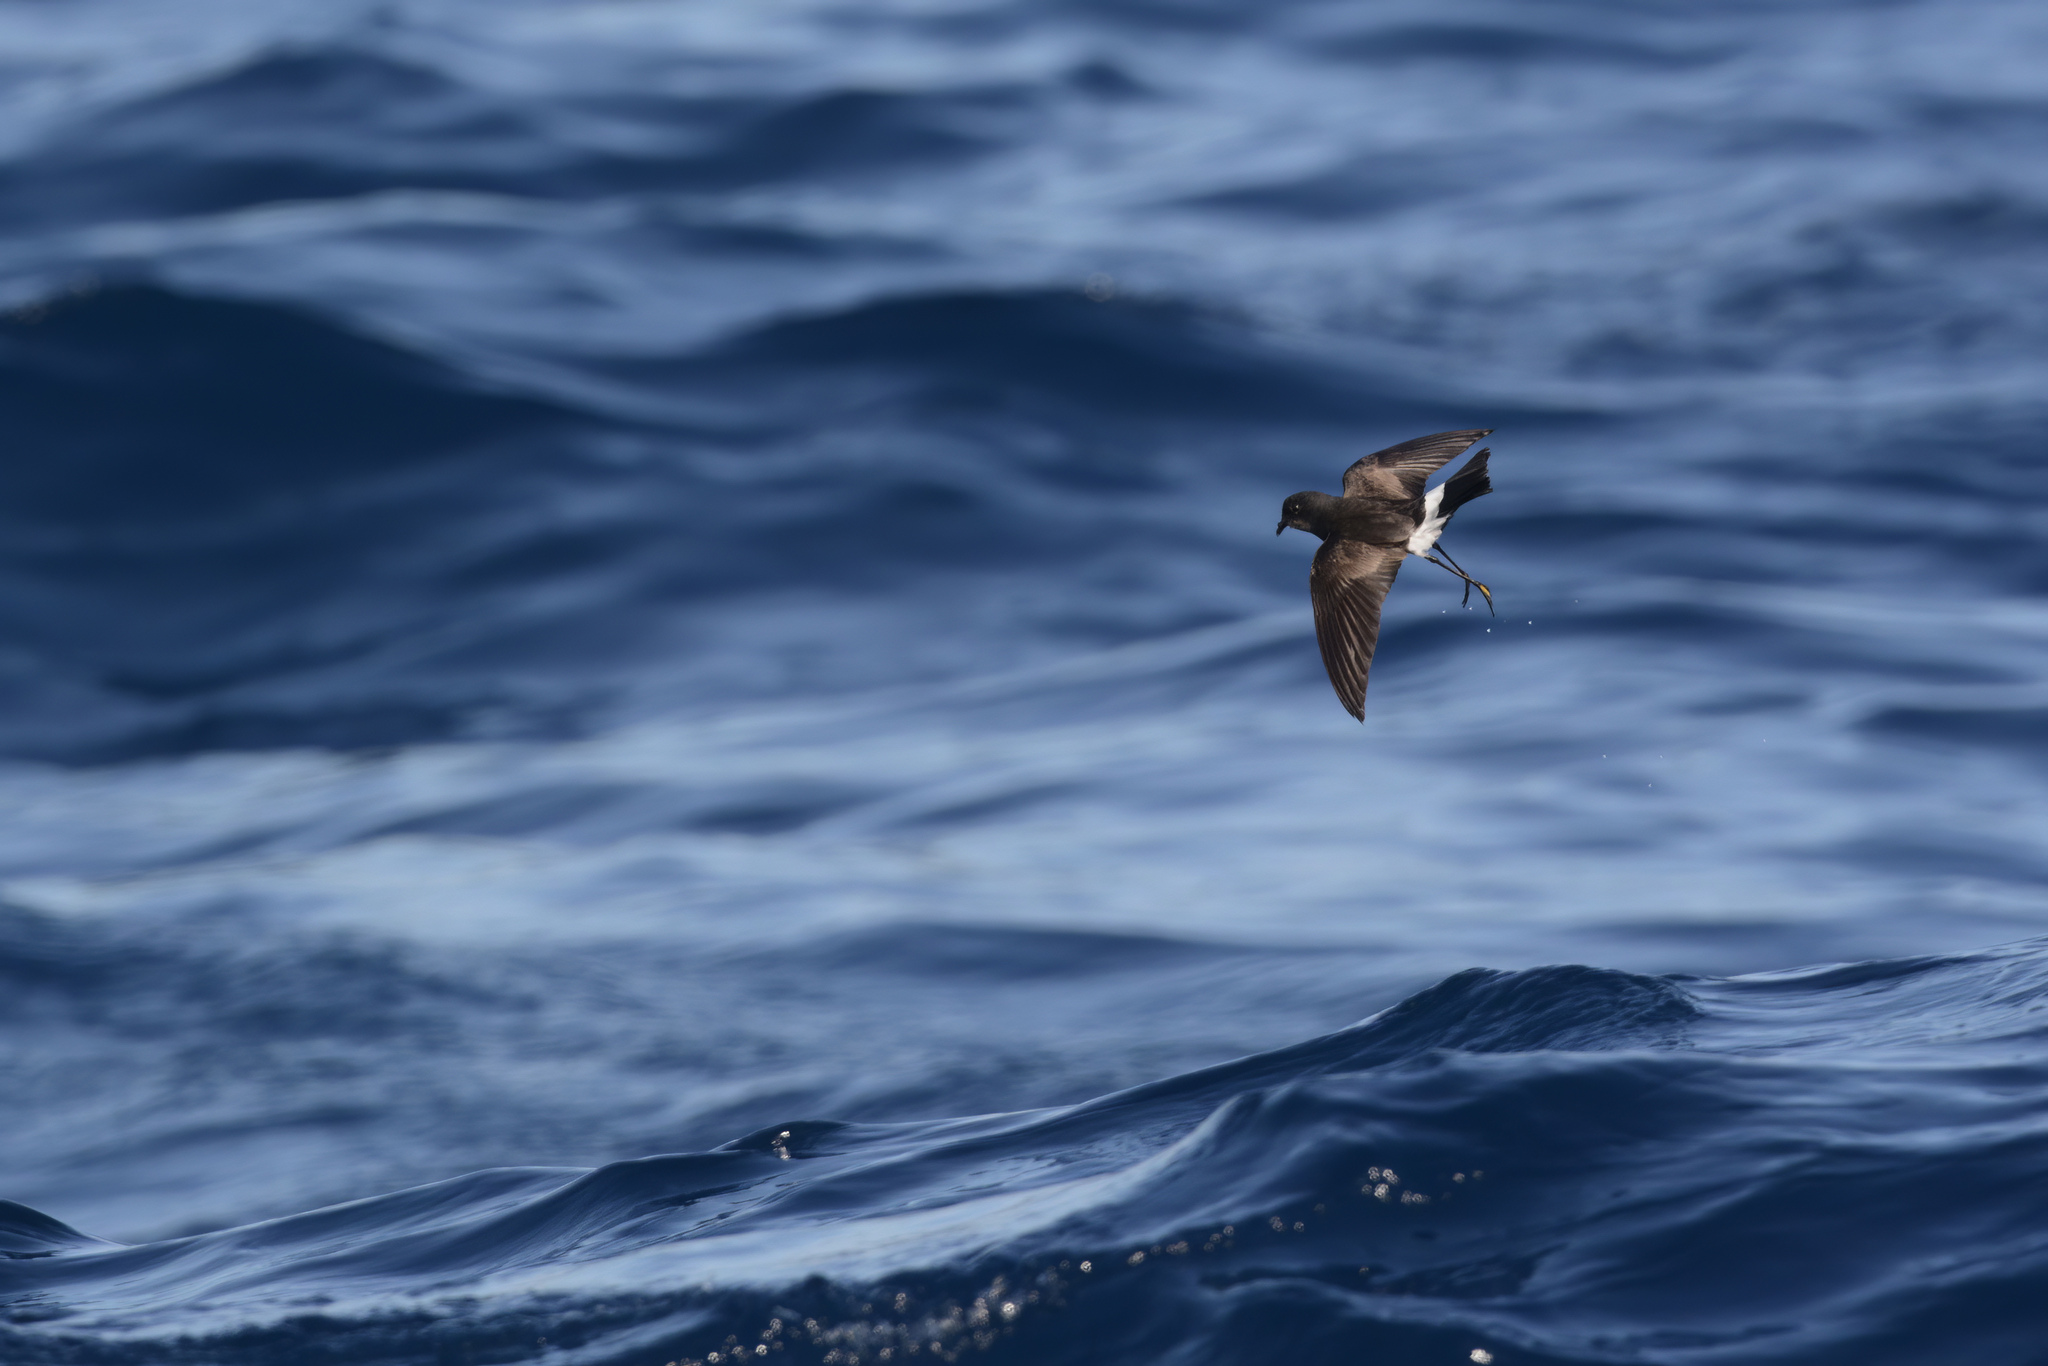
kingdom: Animalia
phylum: Chordata
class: Aves
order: Procellariiformes
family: Hydrobatidae
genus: Oceanites
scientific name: Oceanites oceanicus
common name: Wilson's storm petrel
